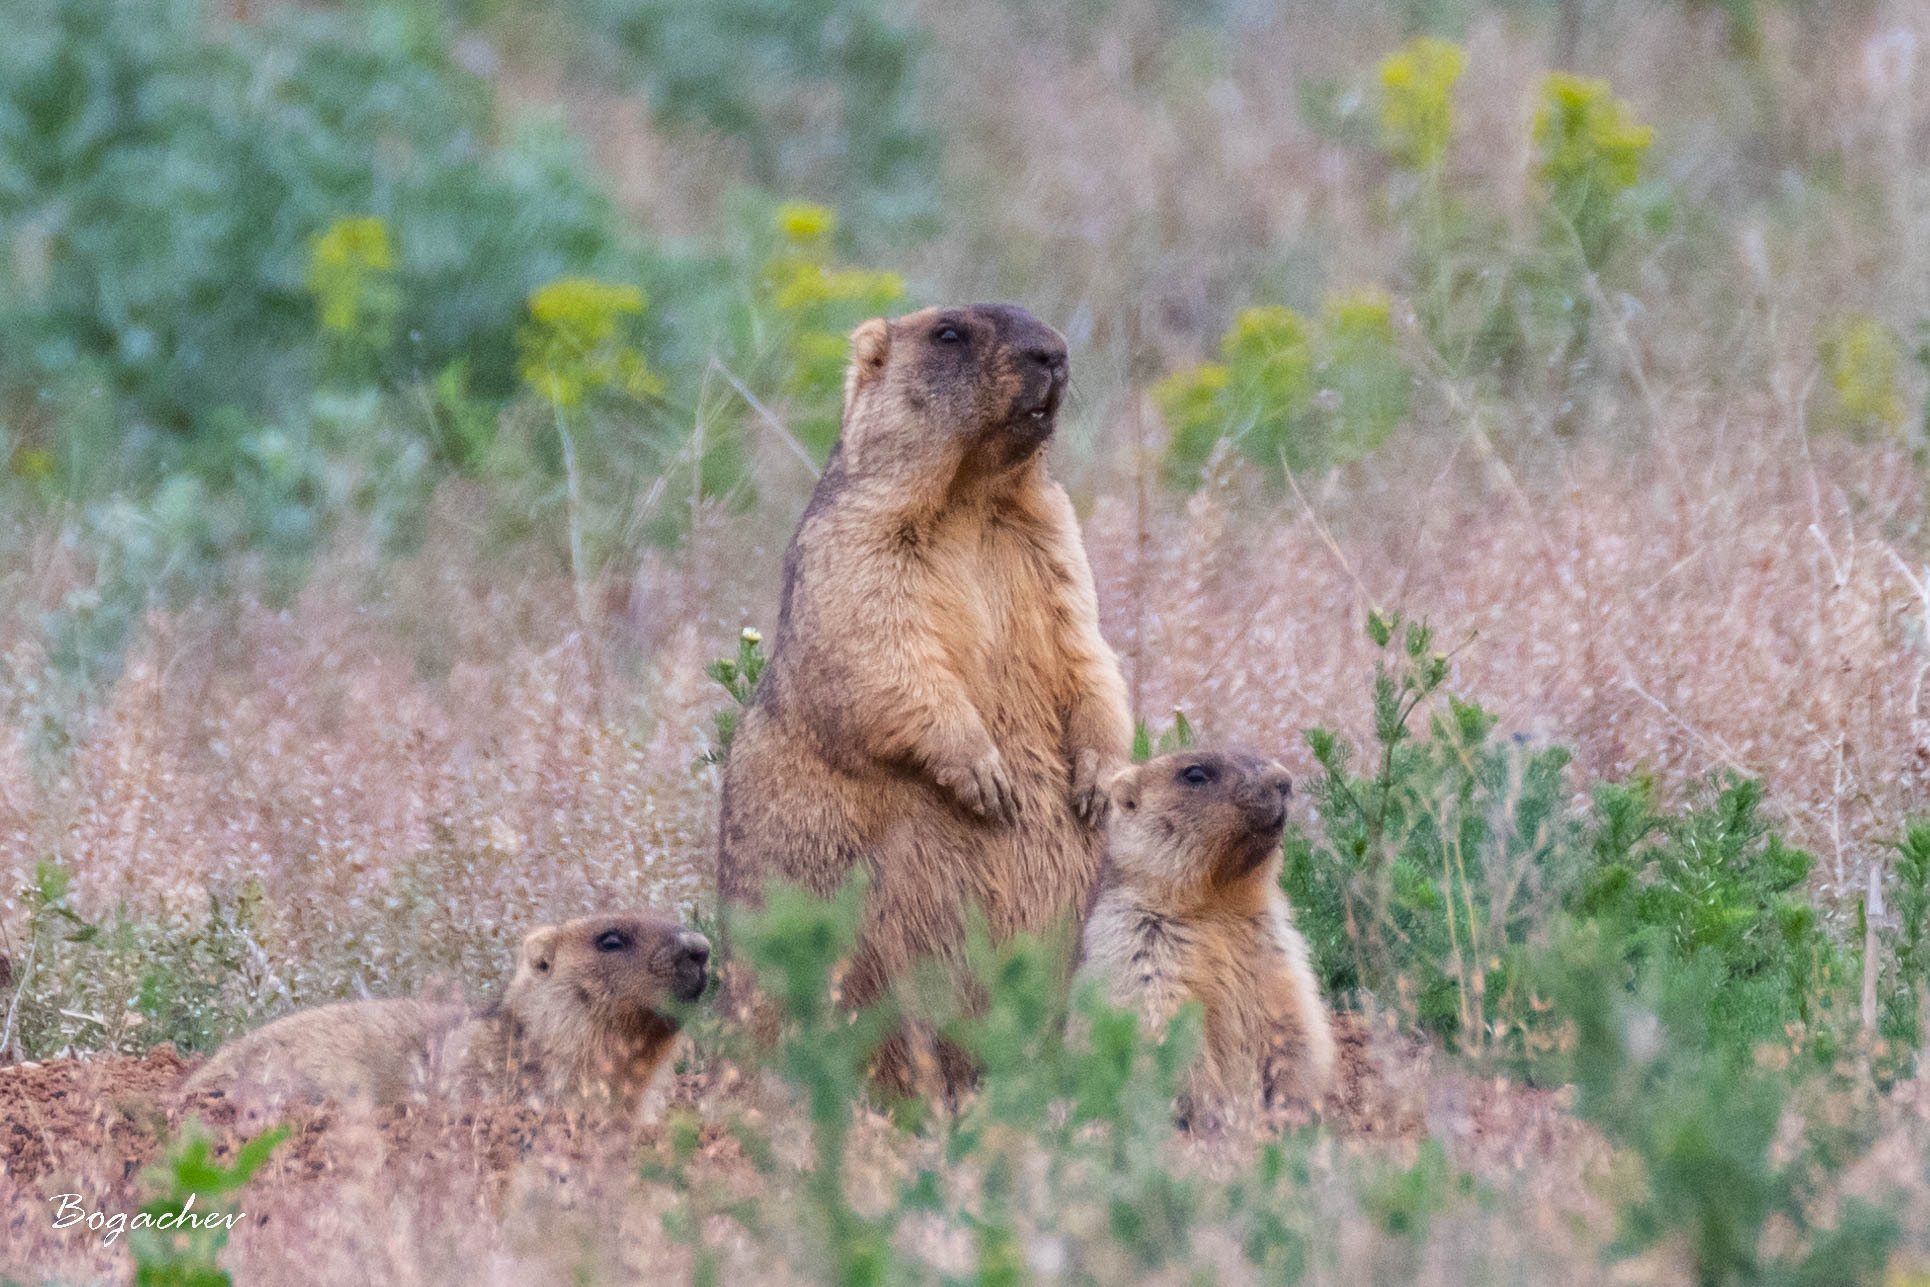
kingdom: Animalia
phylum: Chordata
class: Mammalia
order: Rodentia
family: Sciuridae
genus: Marmota
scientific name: Marmota bobak
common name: Bobak marmot
